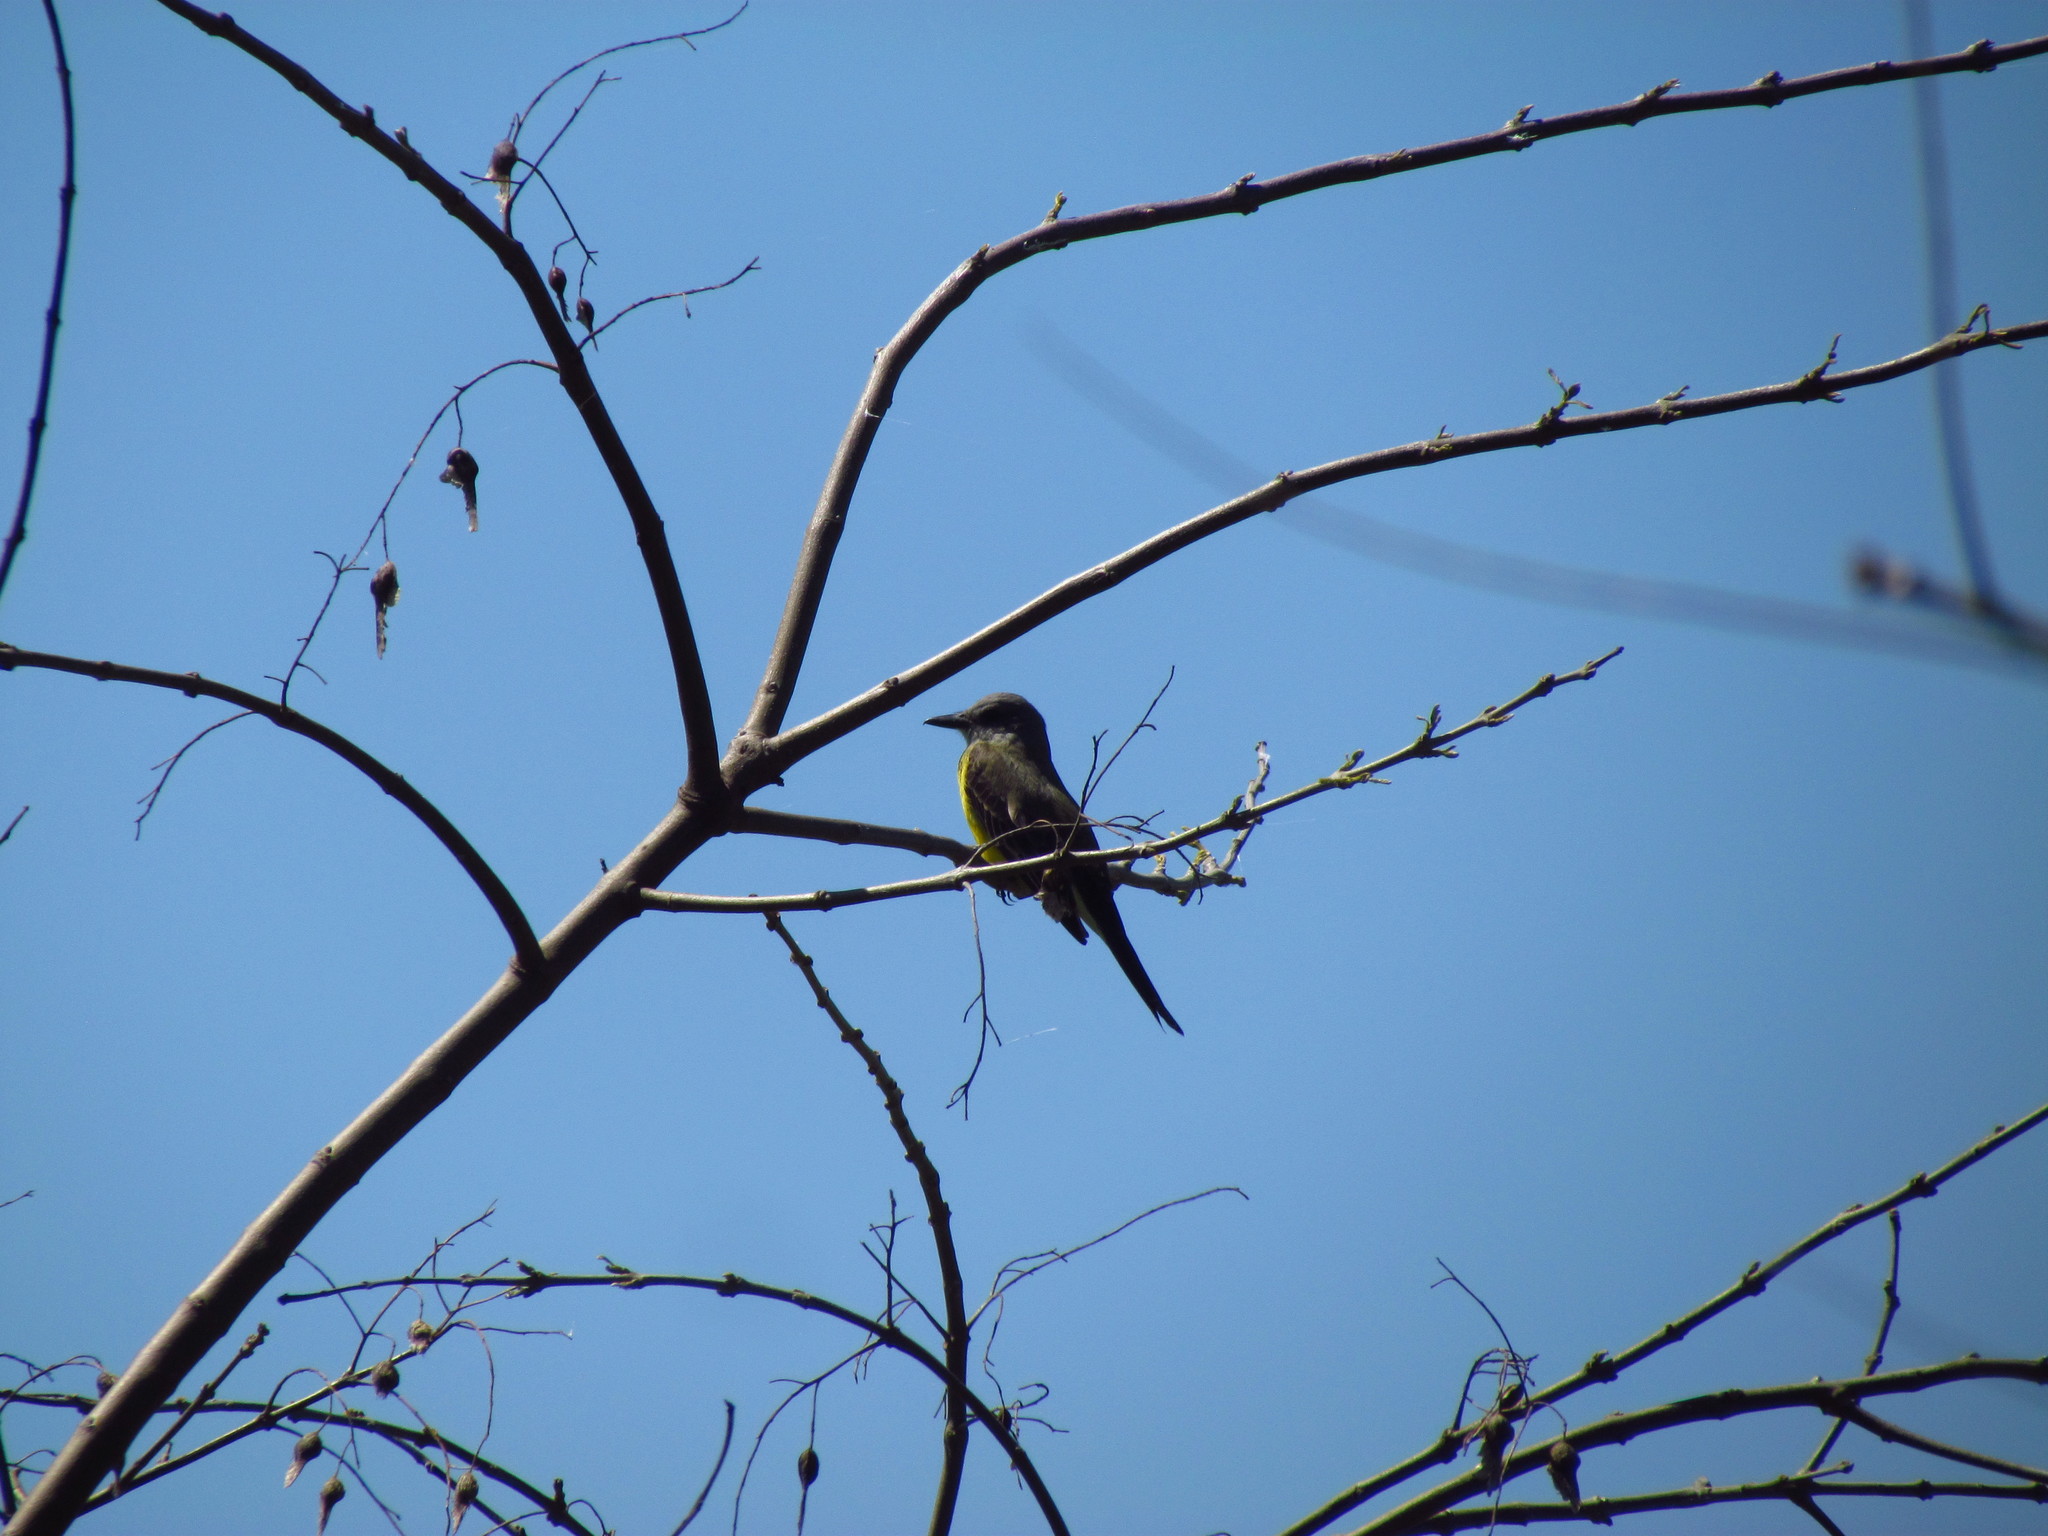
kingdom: Animalia
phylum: Chordata
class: Aves
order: Passeriformes
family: Tyrannidae
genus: Tyrannus
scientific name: Tyrannus melancholicus
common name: Tropical kingbird
